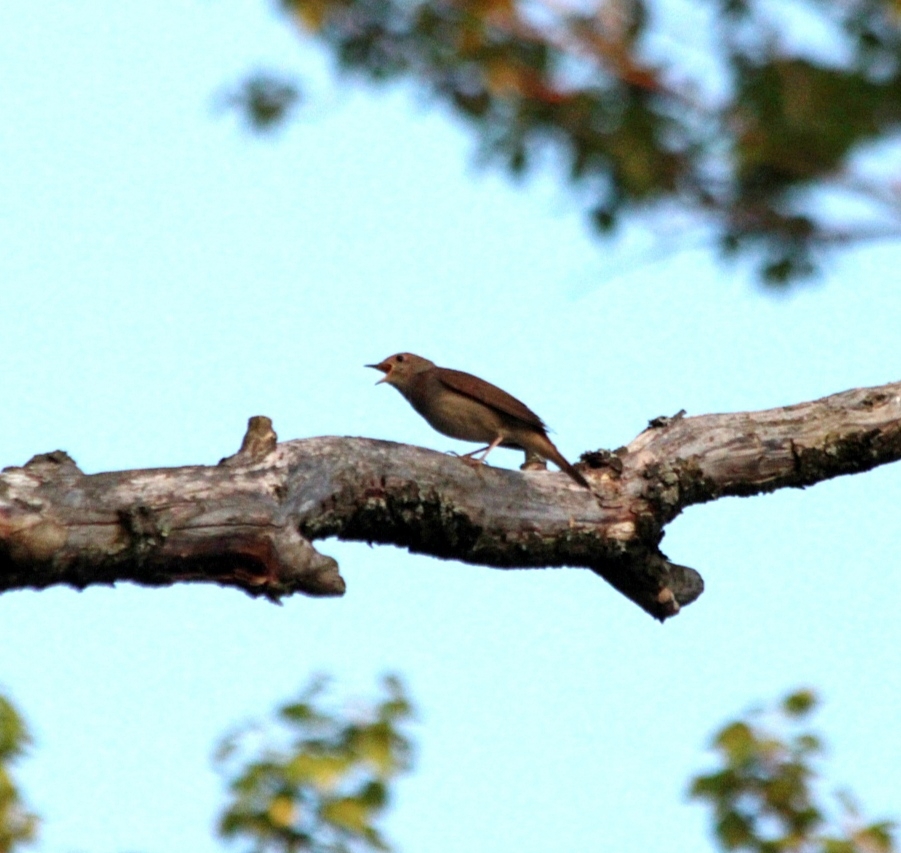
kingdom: Animalia
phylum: Chordata
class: Aves
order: Passeriformes
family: Muscicapidae
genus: Luscinia
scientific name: Luscinia luscinia
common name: Thrush nightingale
